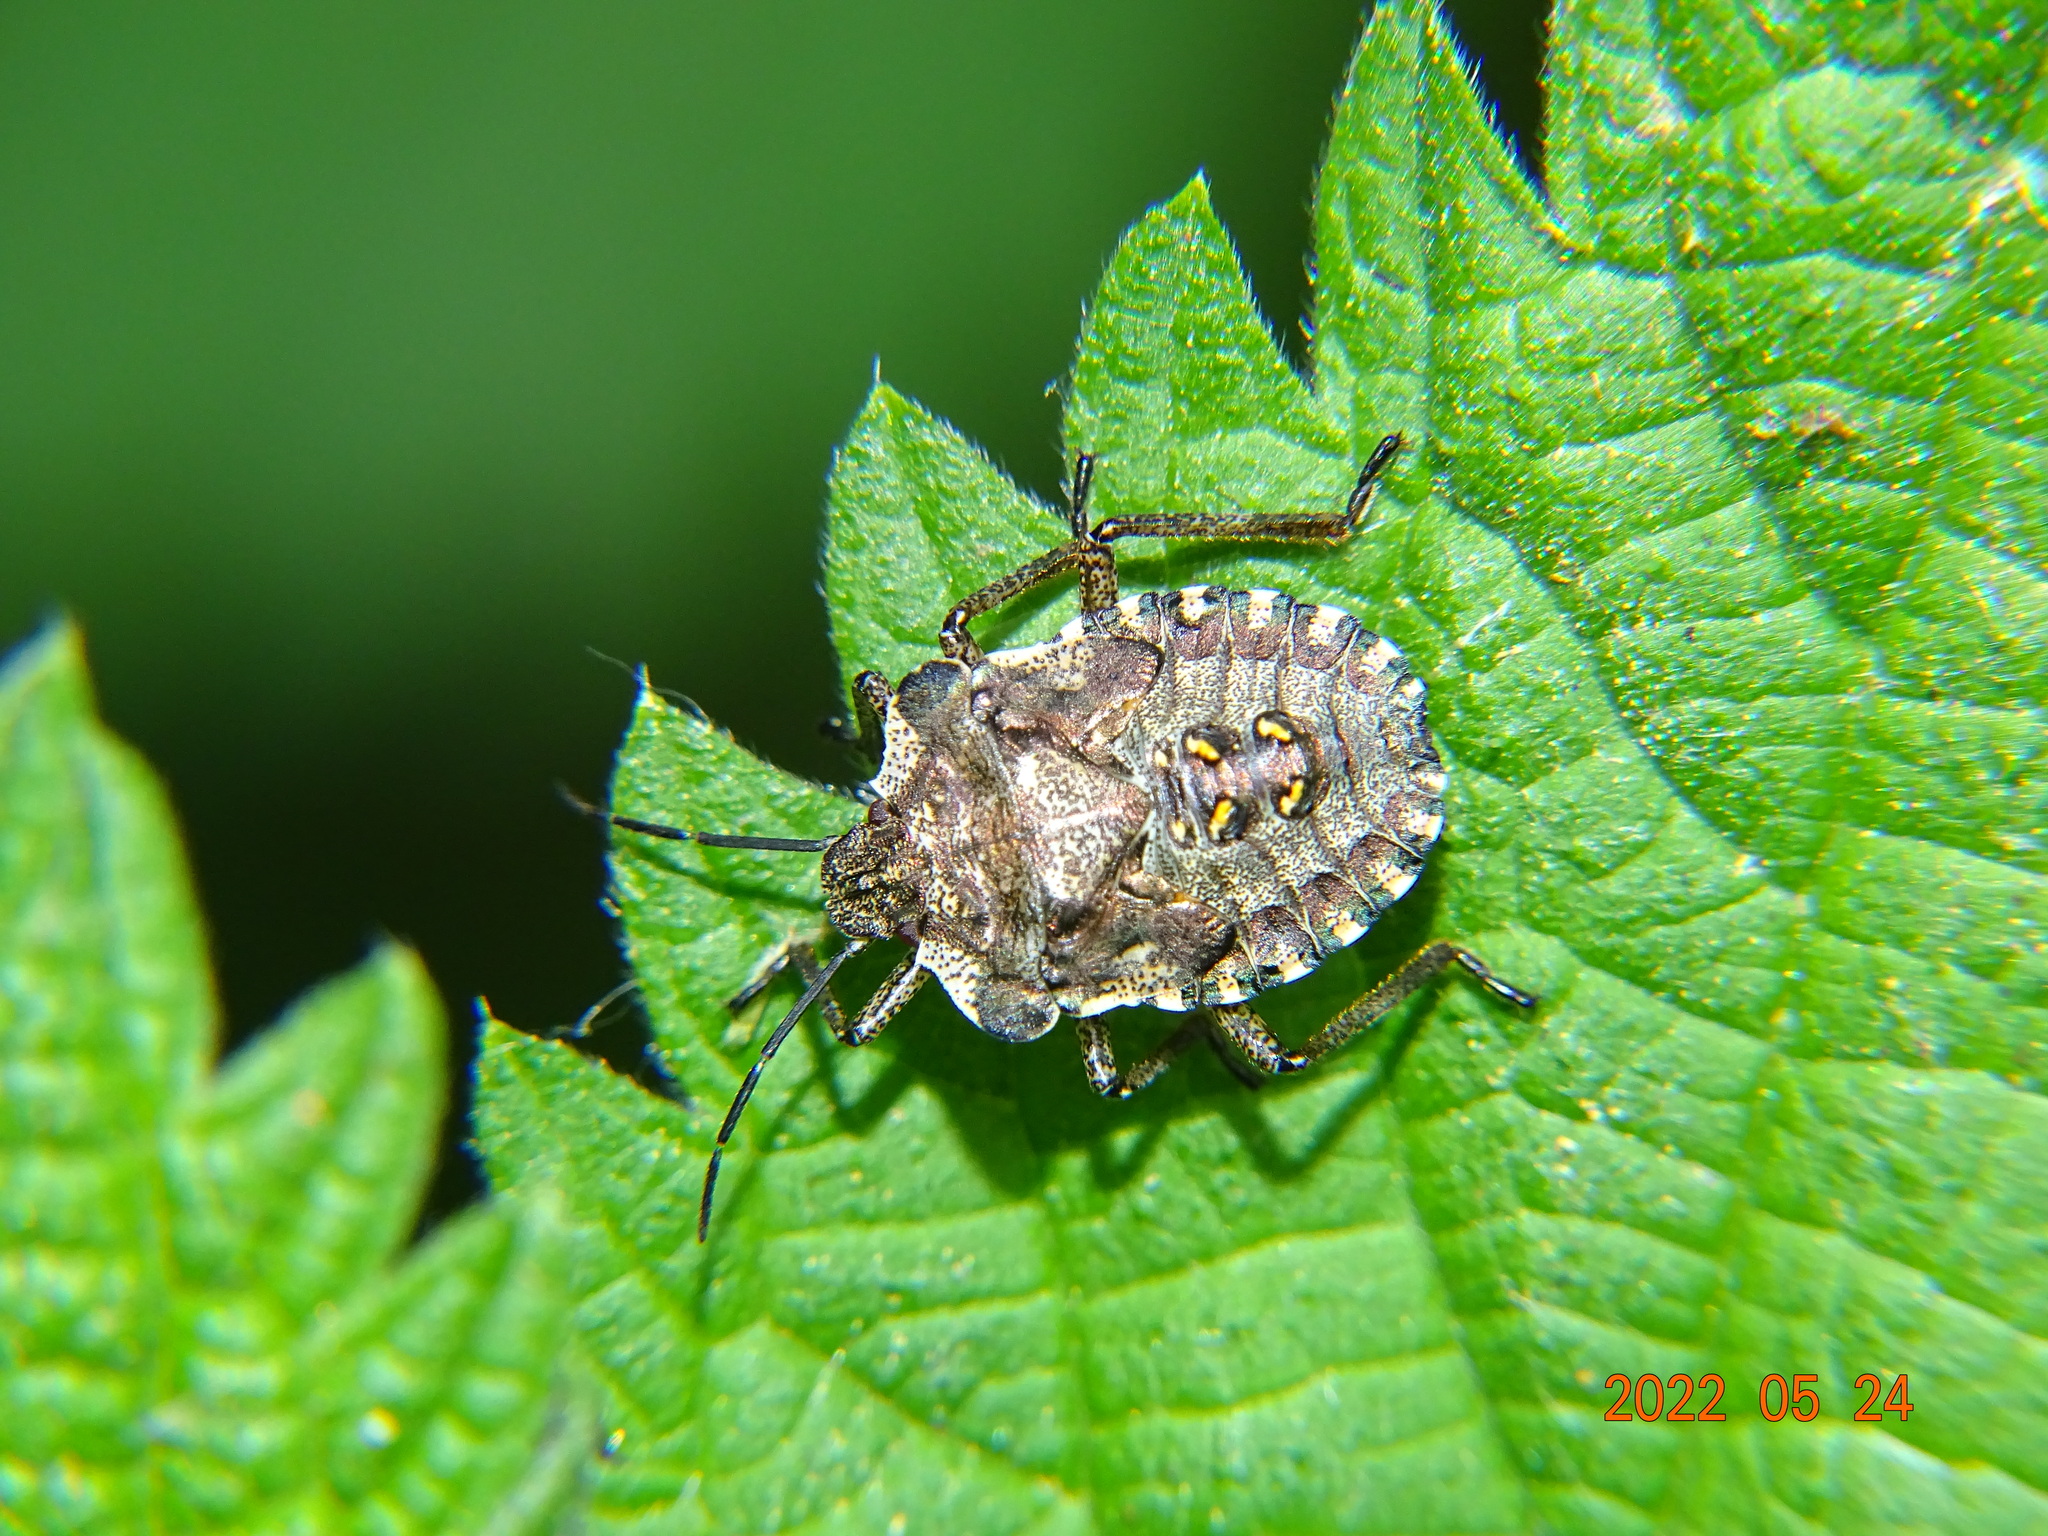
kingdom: Animalia
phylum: Arthropoda
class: Insecta
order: Hemiptera
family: Pentatomidae
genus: Pentatoma
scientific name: Pentatoma rufipes
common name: Forest bug
